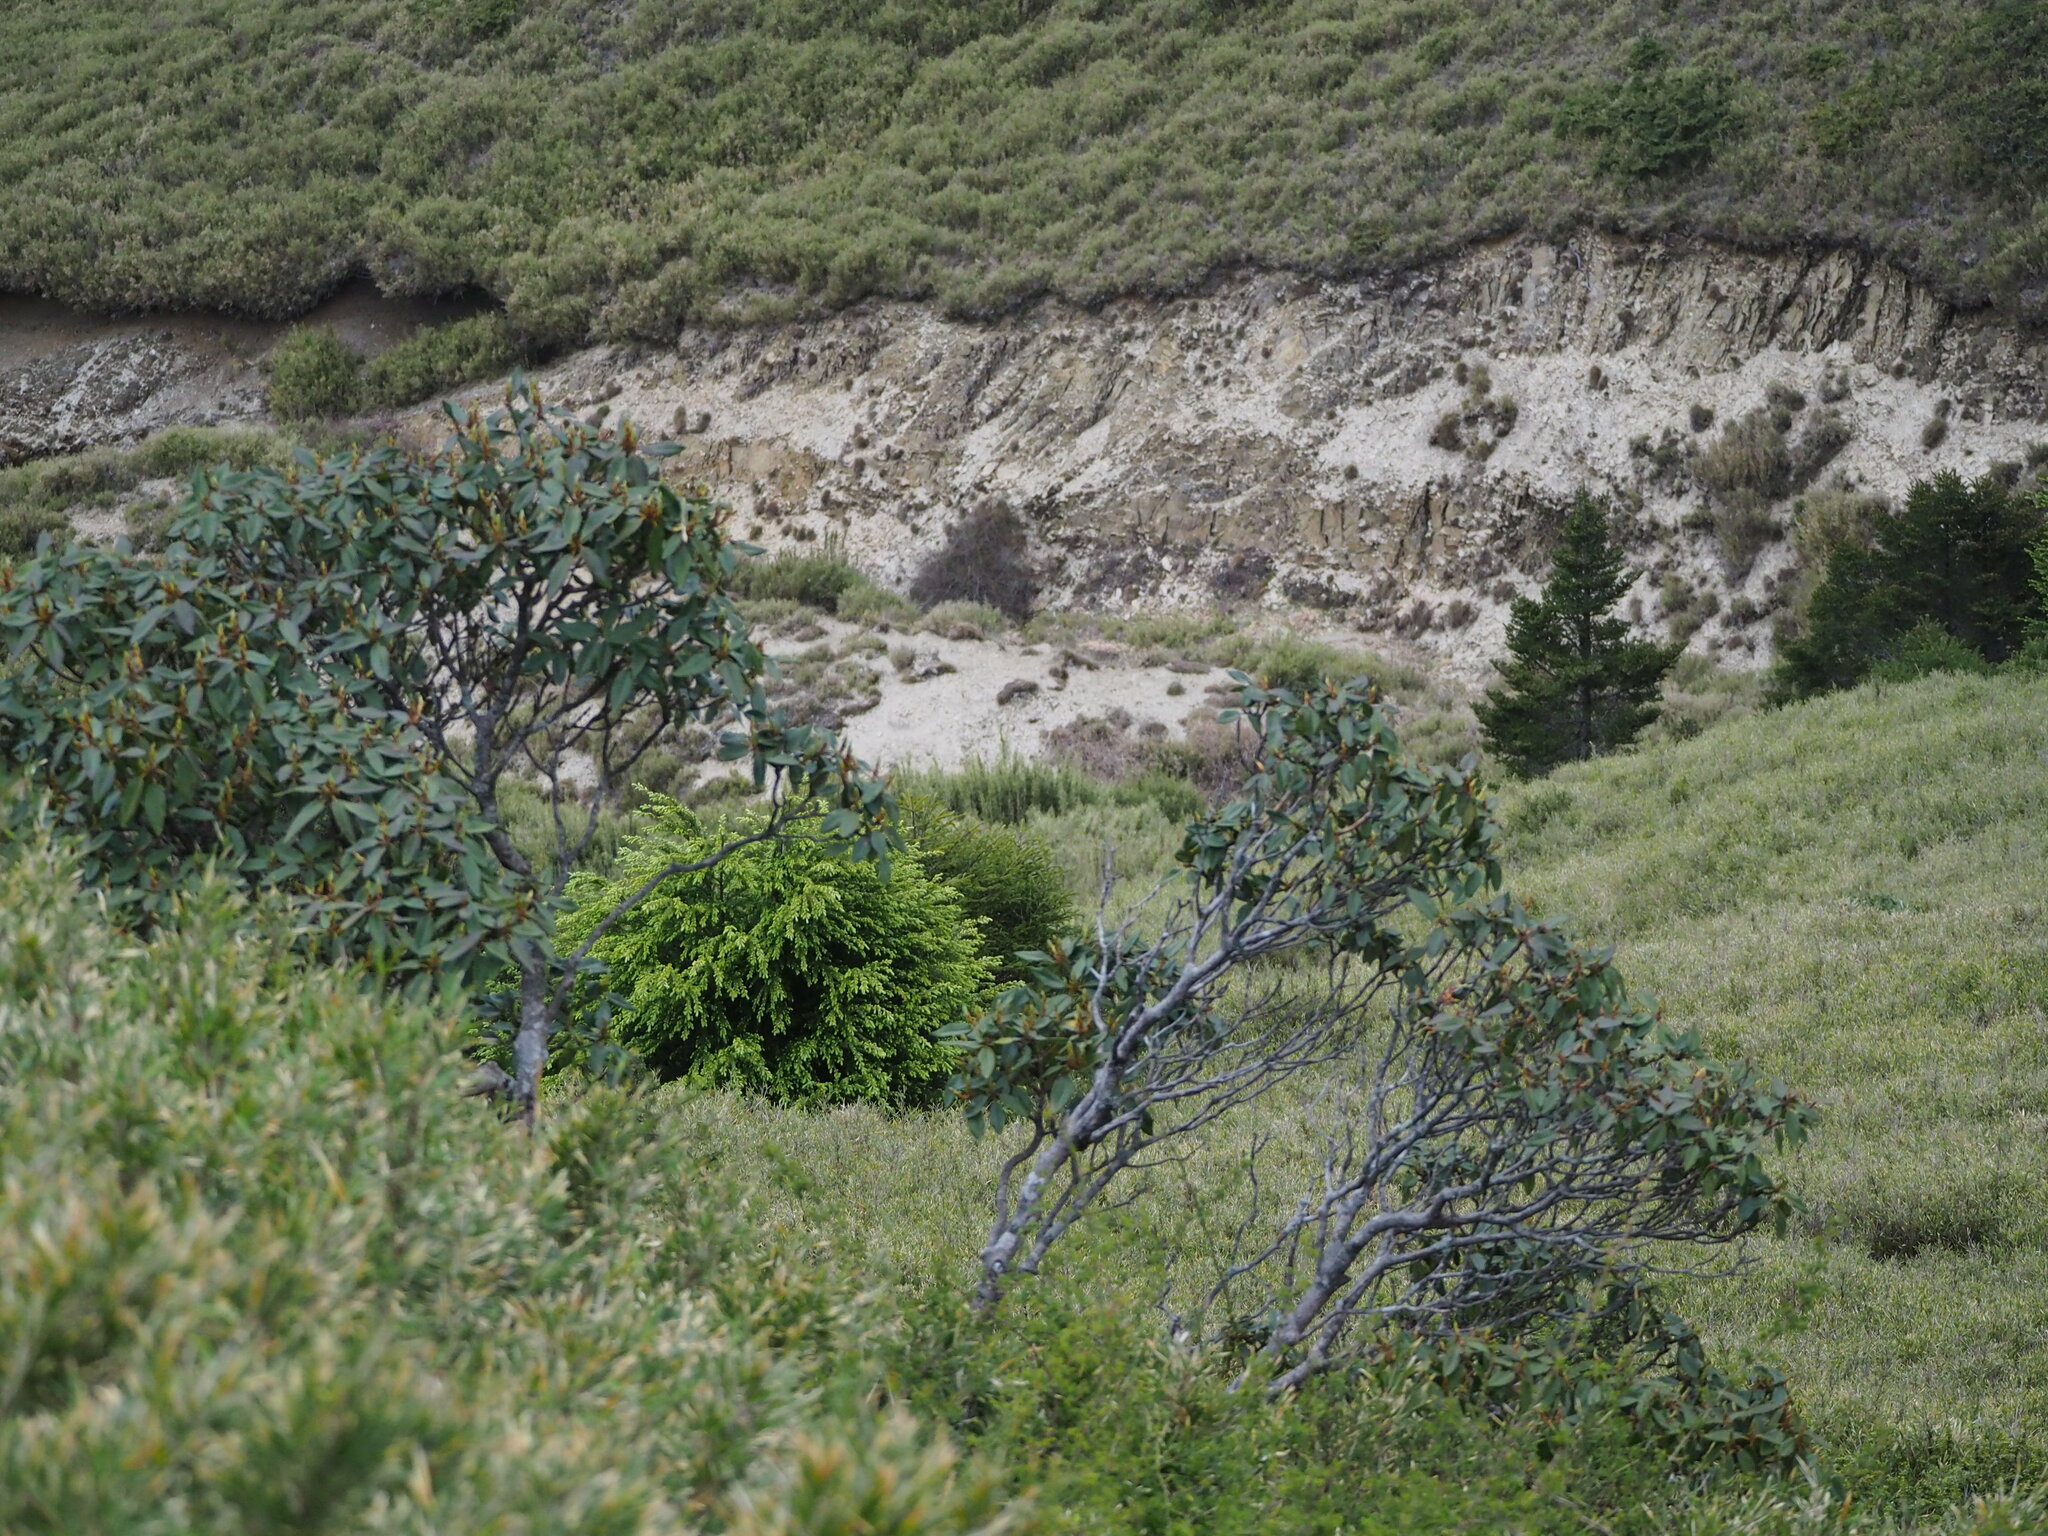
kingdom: Plantae
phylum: Tracheophyta
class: Magnoliopsida
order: Ericales
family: Ericaceae
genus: Rhododendron
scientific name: Rhododendron pseudochrysanthum
